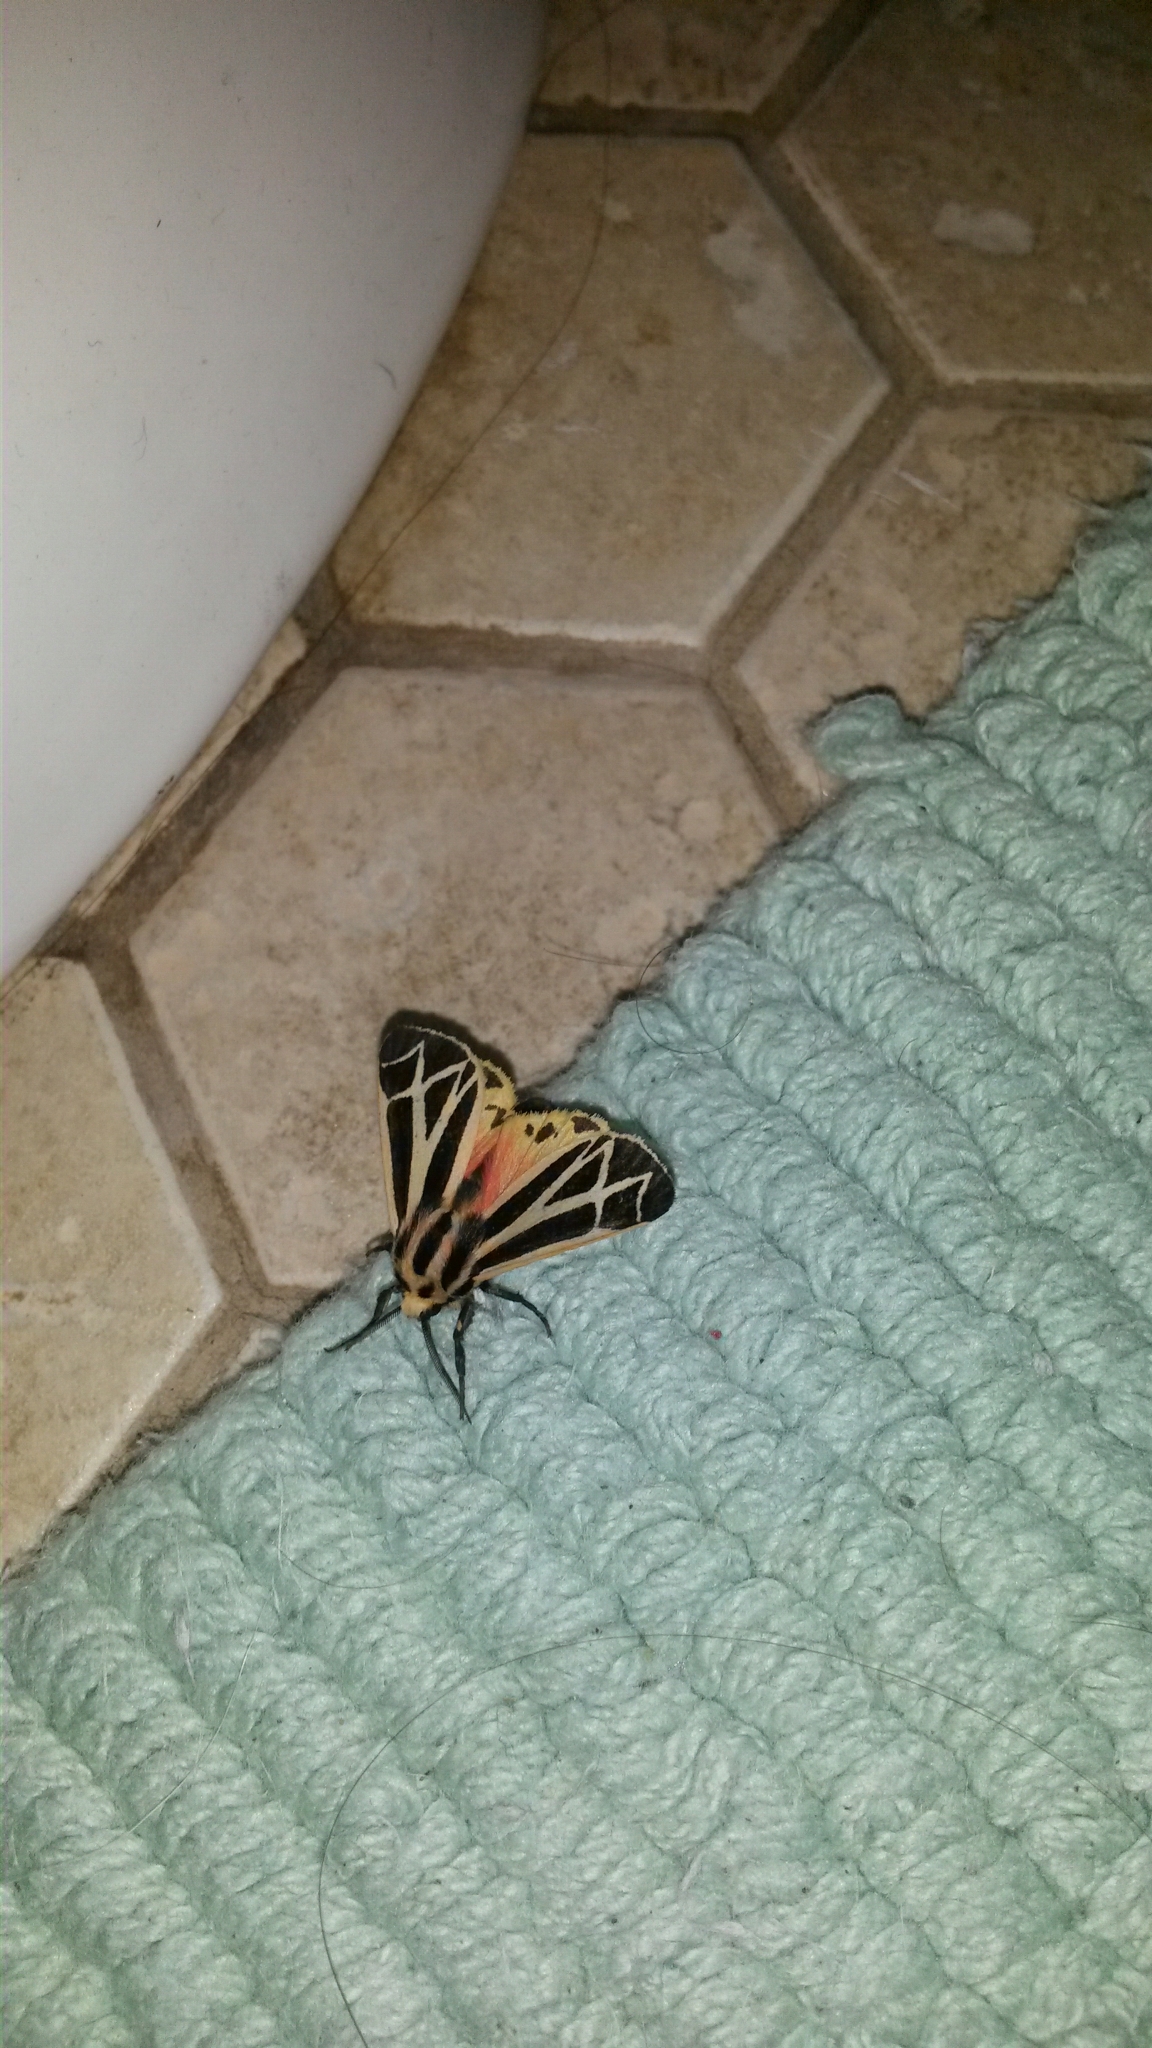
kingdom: Animalia
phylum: Arthropoda
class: Insecta
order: Lepidoptera
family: Erebidae
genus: Apantesis
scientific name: Apantesis phalerata
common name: Harnessed tiger moth
